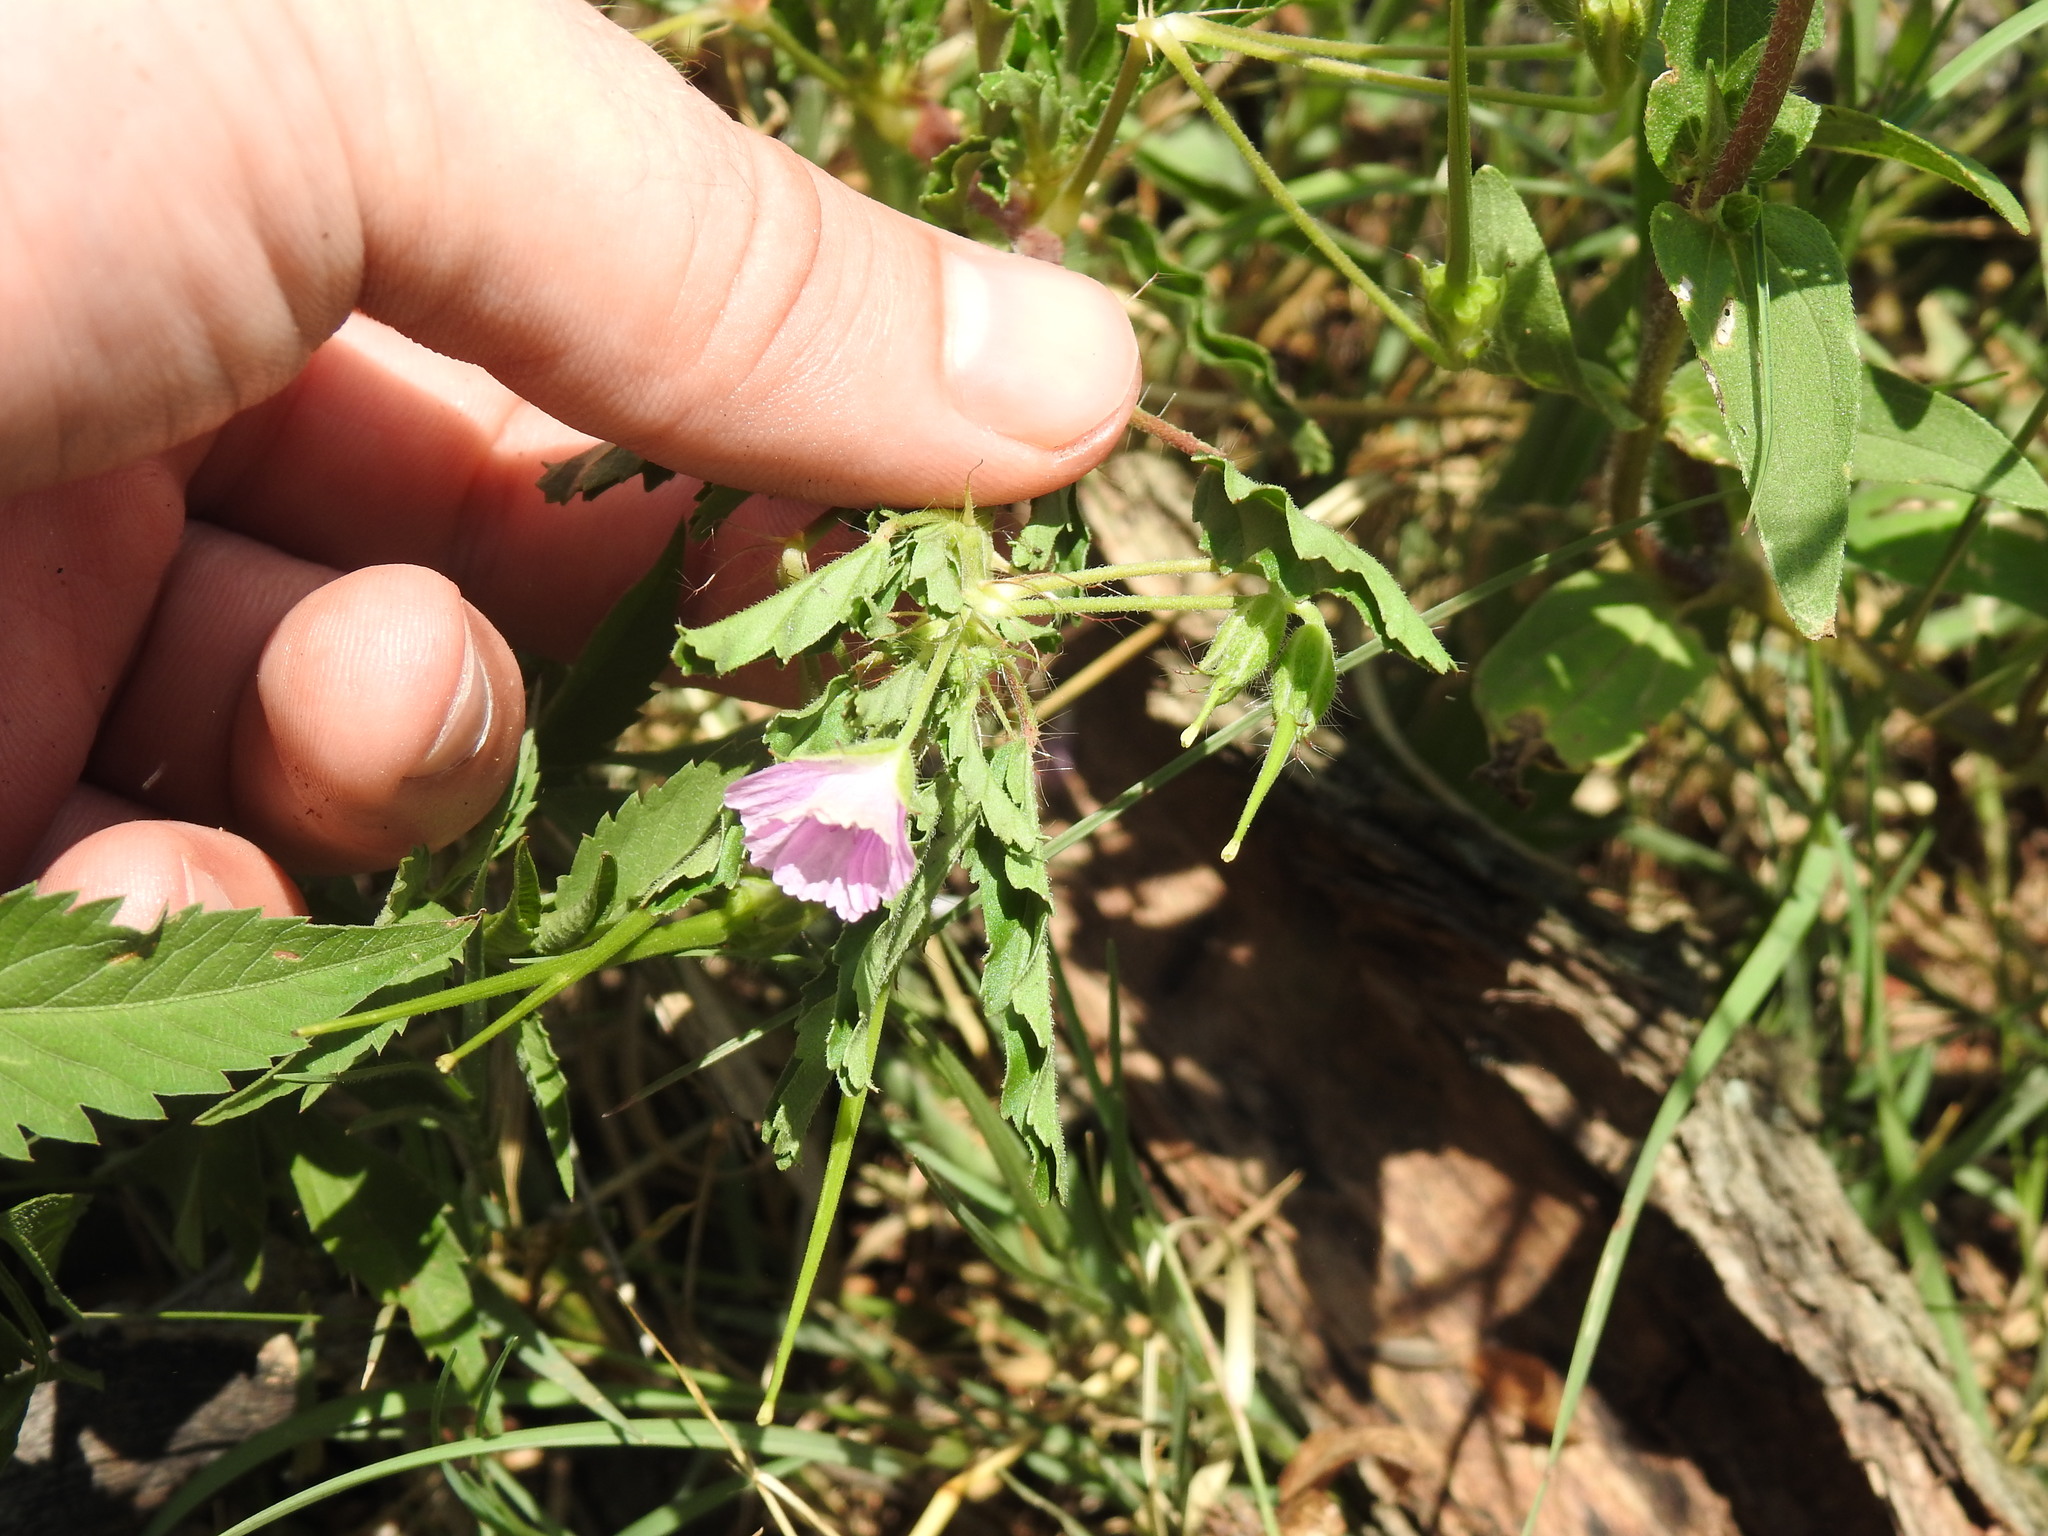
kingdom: Plantae
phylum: Tracheophyta
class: Magnoliopsida
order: Geraniales
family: Geraniaceae
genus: Monsonia
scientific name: Monsonia angustifolia
